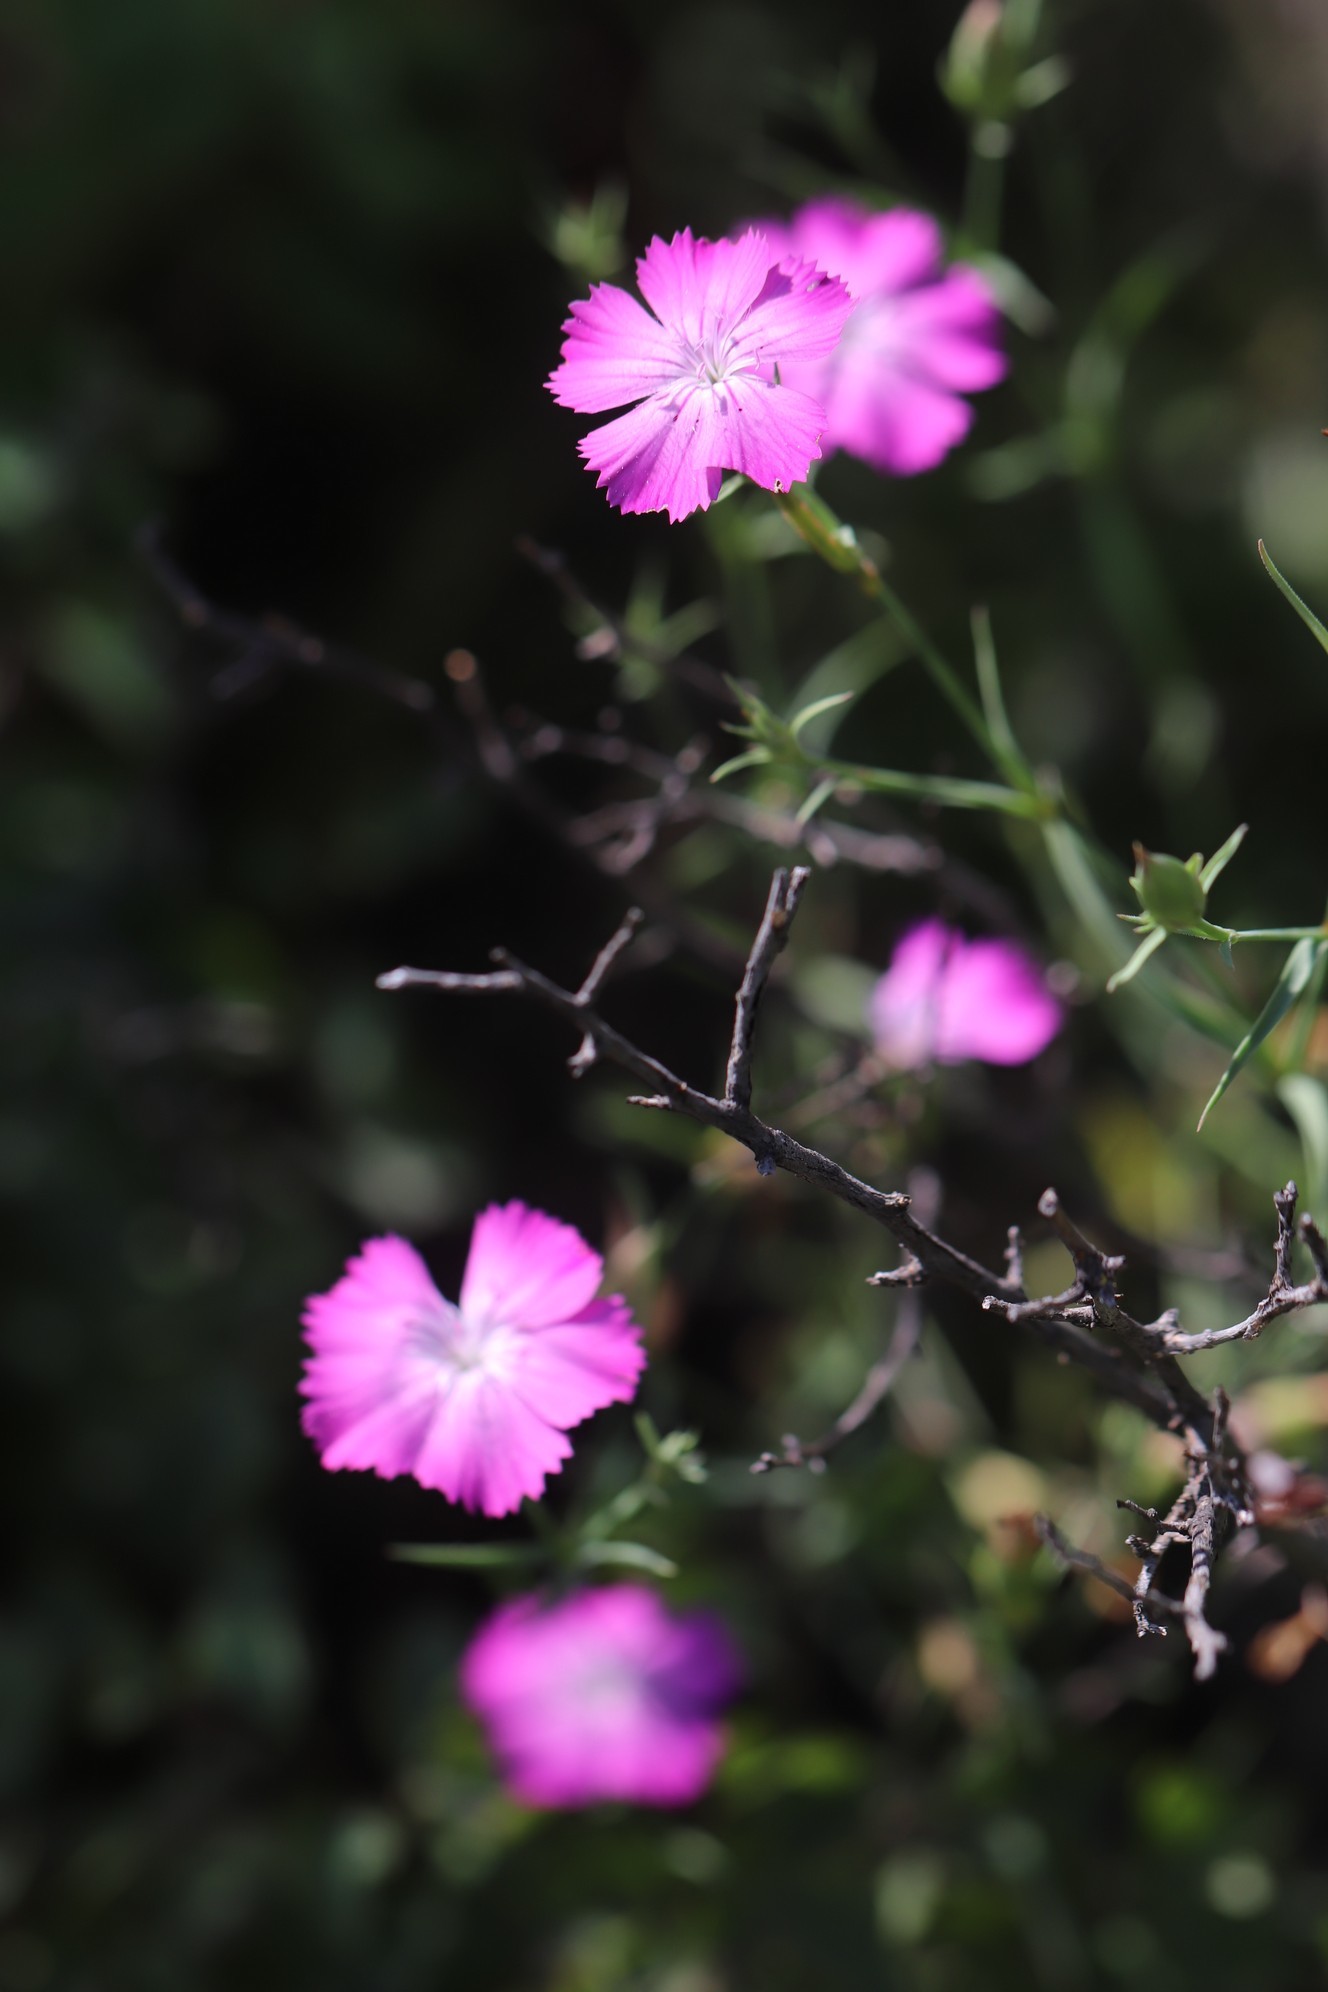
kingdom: Plantae
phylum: Tracheophyta
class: Magnoliopsida
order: Caryophyllales
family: Caryophyllaceae
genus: Dianthus
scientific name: Dianthus chinensis
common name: Rainbow pink
